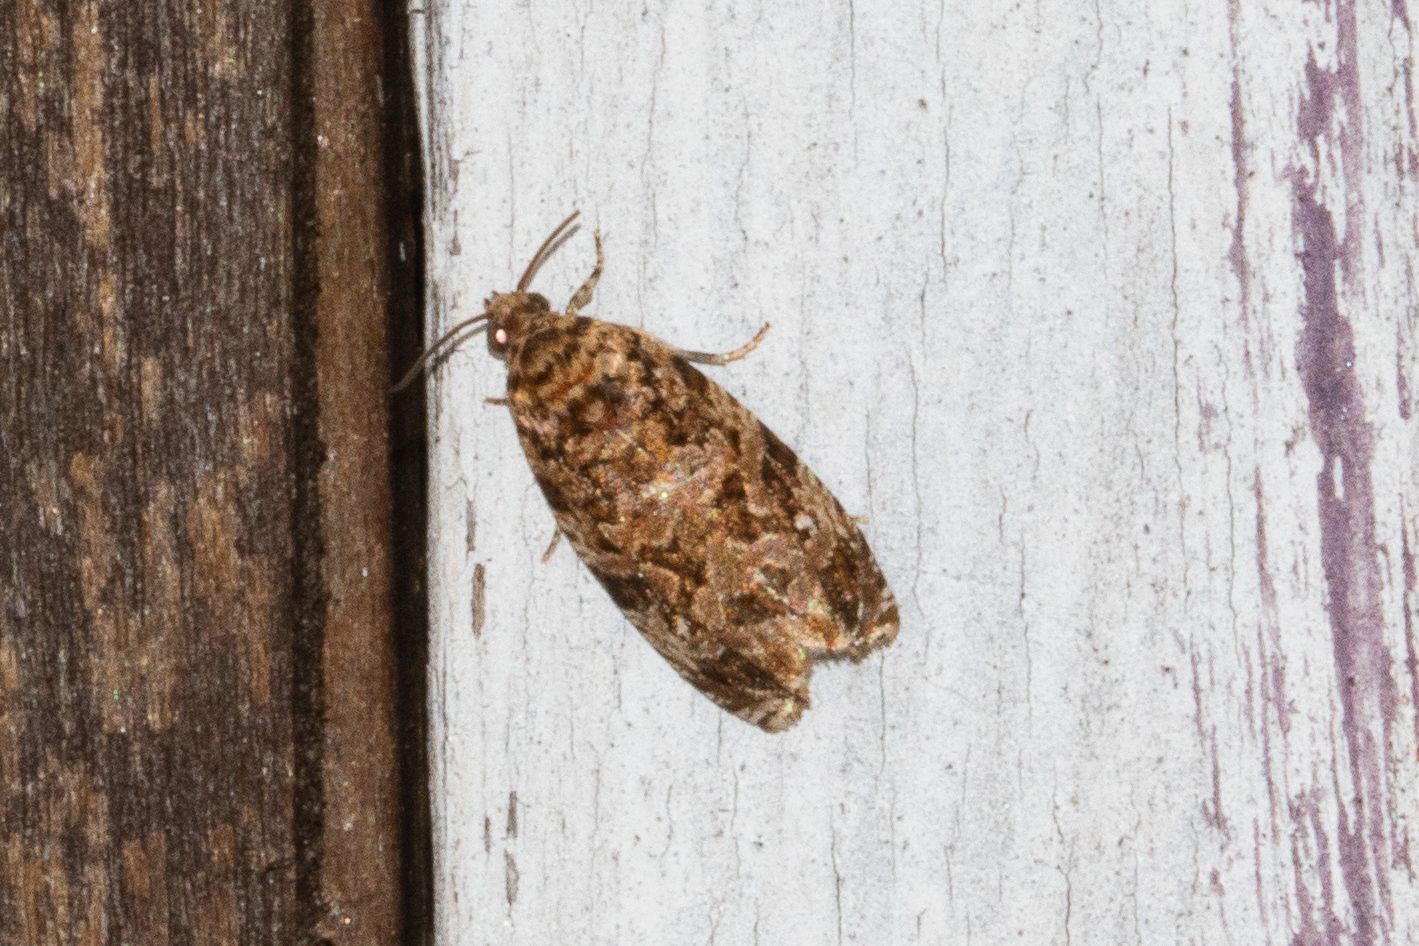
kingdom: Animalia
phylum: Arthropoda
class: Insecta
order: Lepidoptera
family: Tortricidae
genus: Phaecasiophora
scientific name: Phaecasiophora niveiguttana
